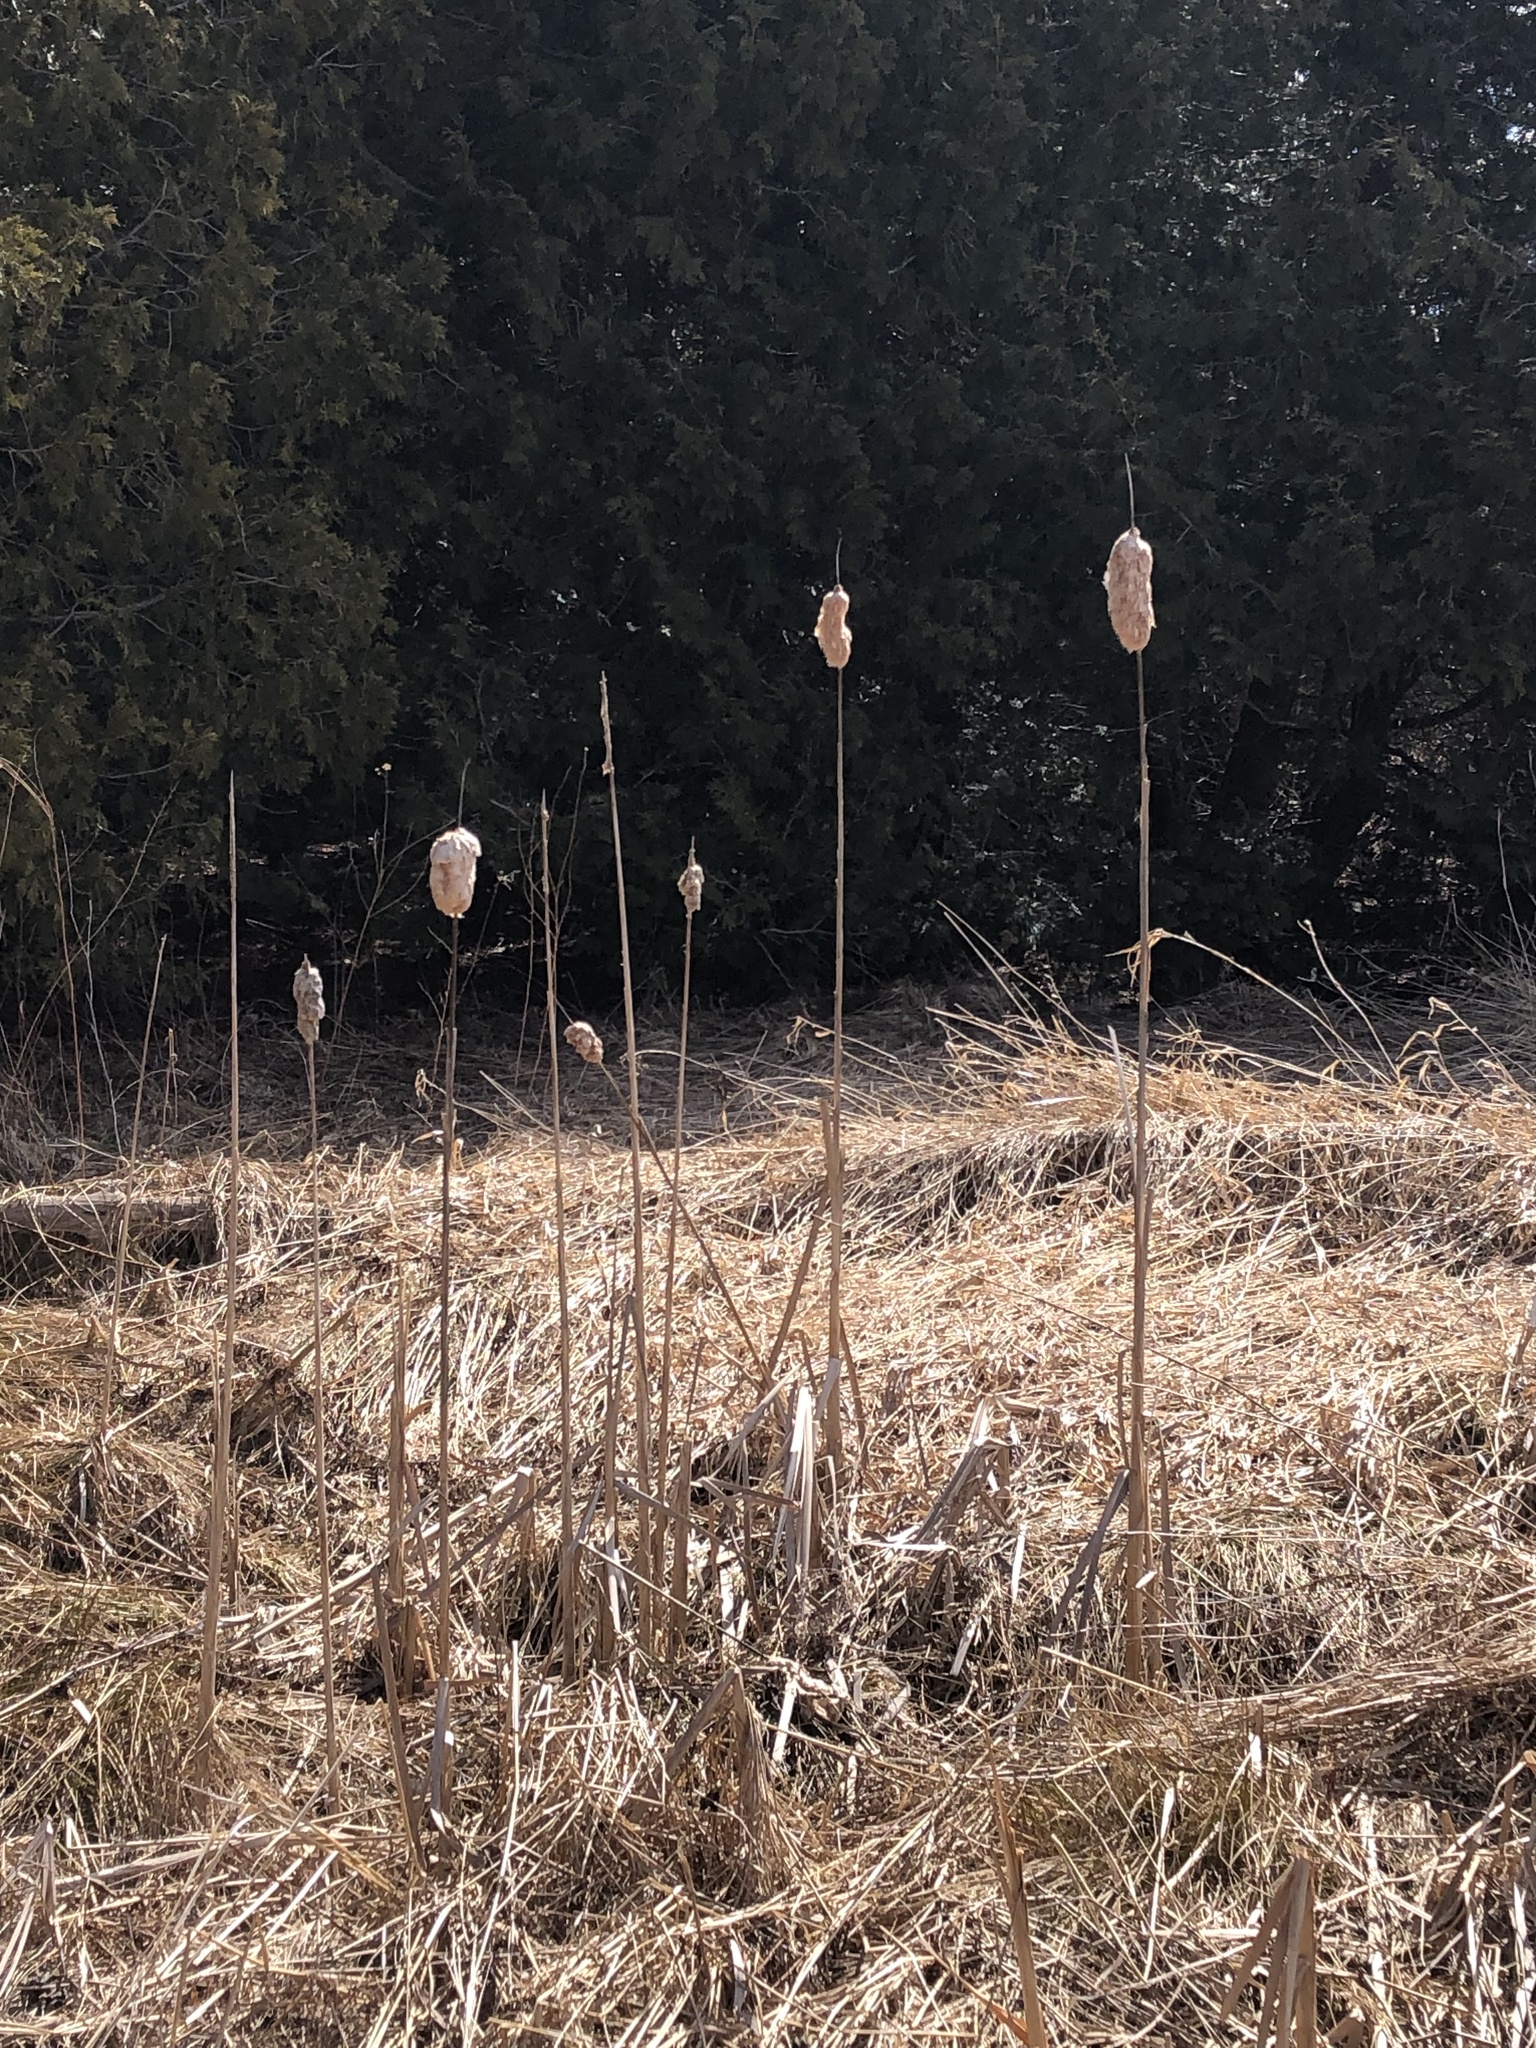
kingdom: Plantae
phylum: Tracheophyta
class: Liliopsida
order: Poales
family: Typhaceae
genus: Typha
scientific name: Typha latifolia
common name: Broadleaf cattail
